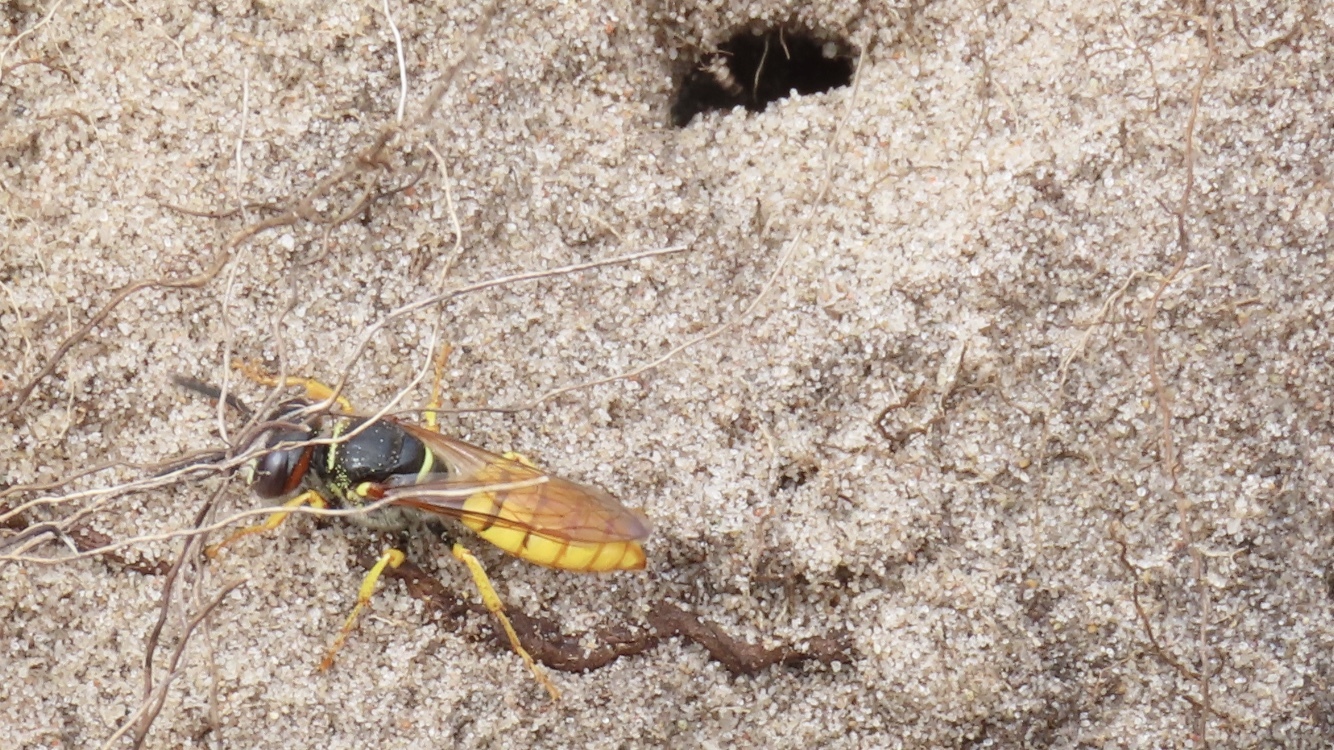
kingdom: Animalia
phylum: Arthropoda
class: Insecta
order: Hymenoptera
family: Crabronidae
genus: Philanthus
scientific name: Philanthus triangulum
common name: Bee wolf
